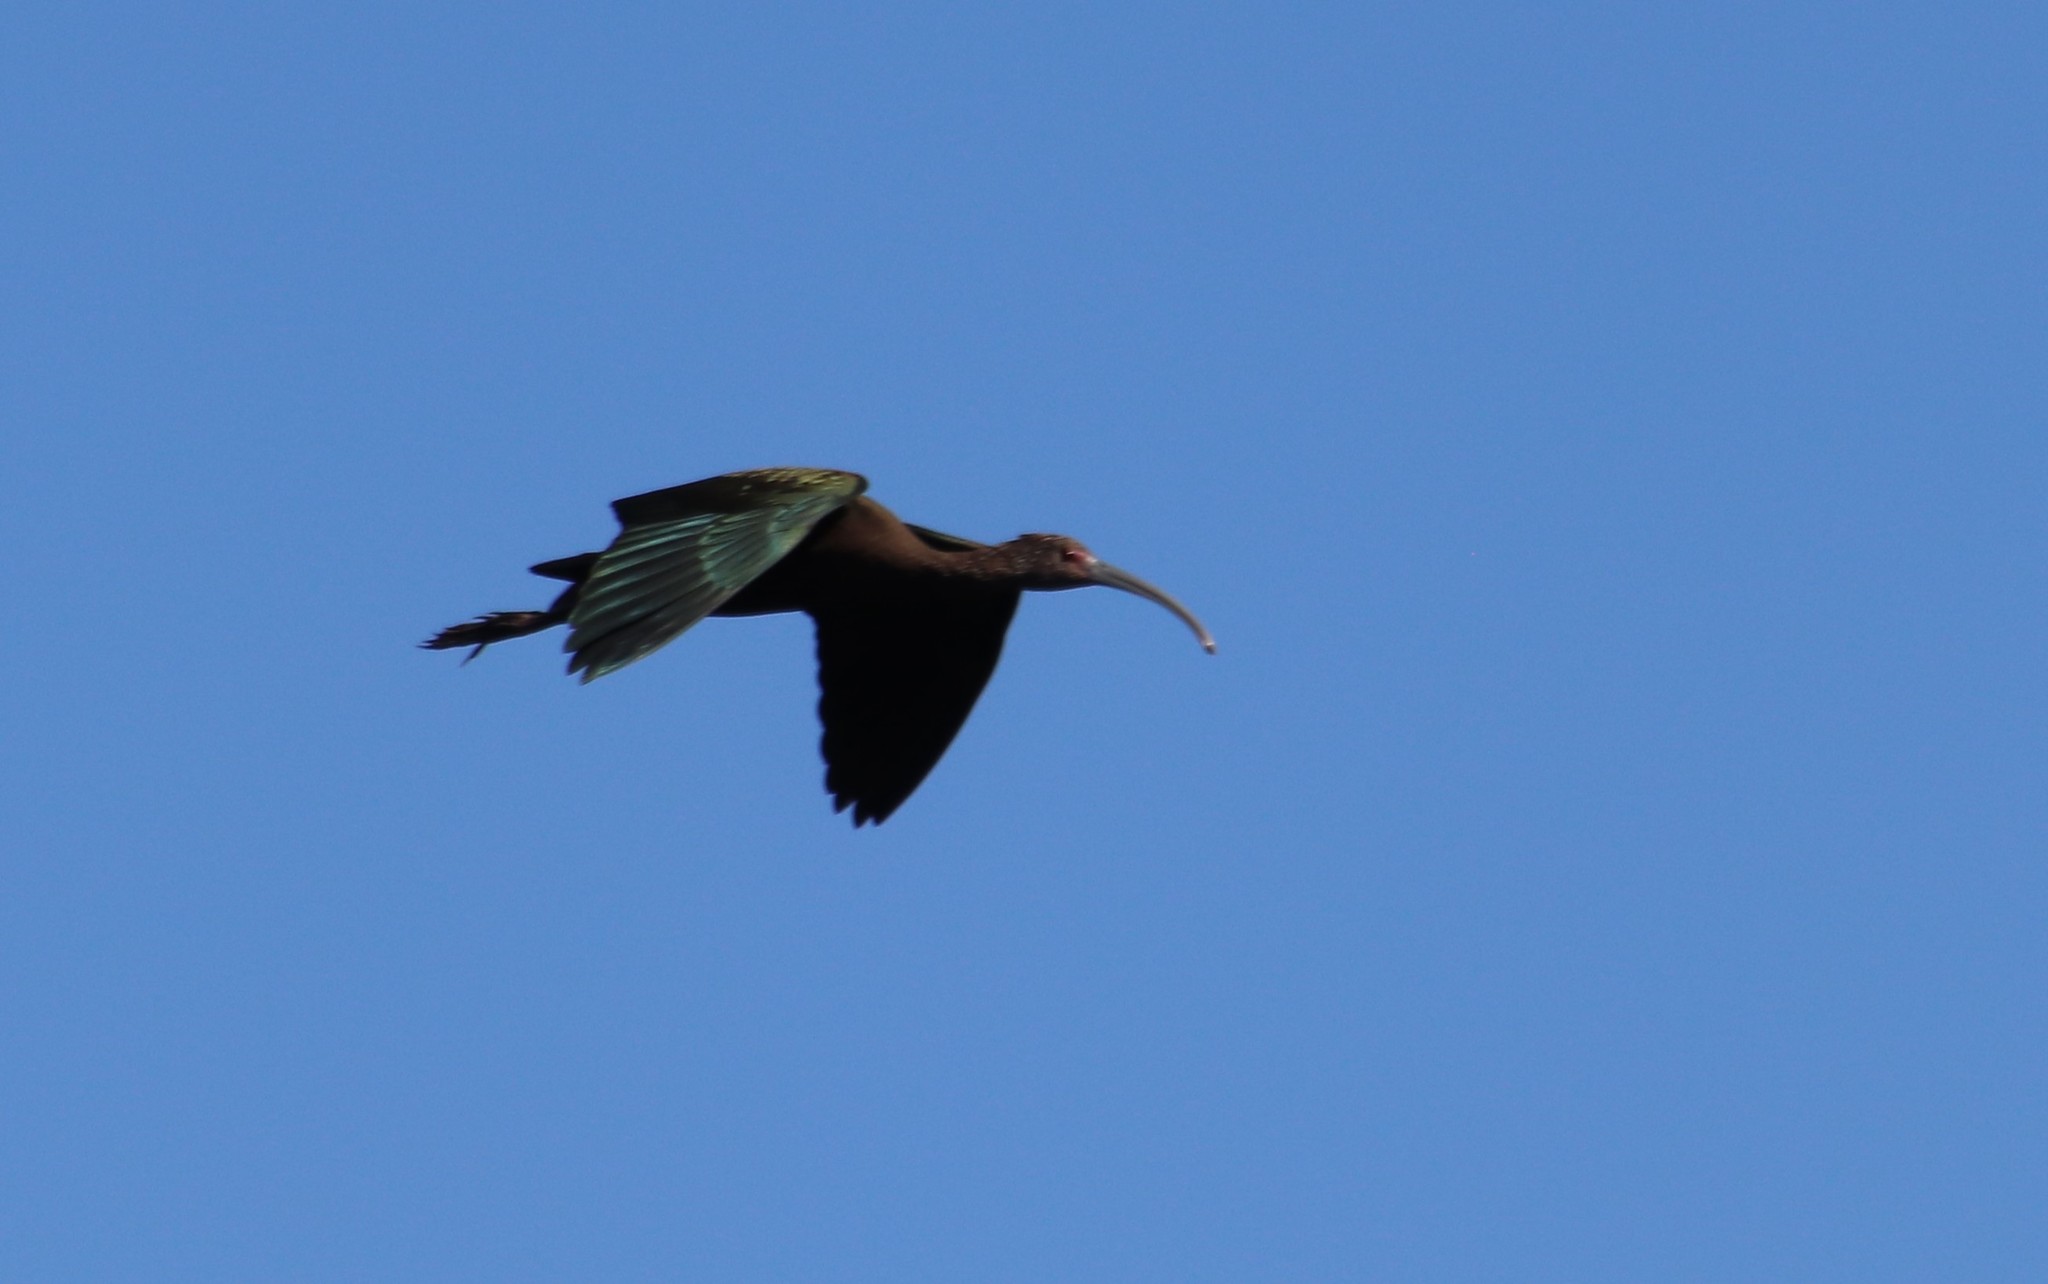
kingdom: Animalia
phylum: Chordata
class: Aves
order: Pelecaniformes
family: Threskiornithidae
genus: Plegadis
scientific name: Plegadis chihi
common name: White-faced ibis
